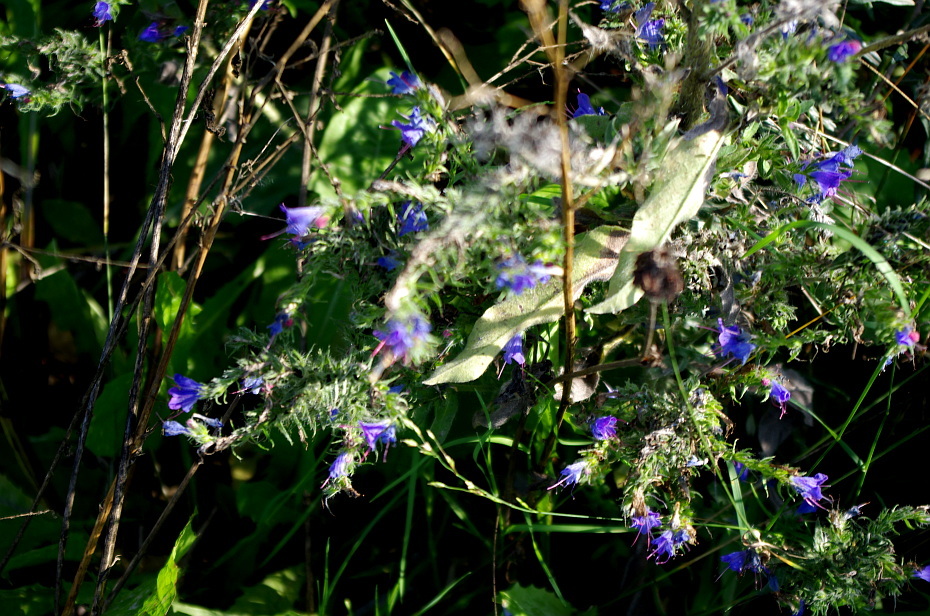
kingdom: Plantae
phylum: Tracheophyta
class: Magnoliopsida
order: Boraginales
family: Boraginaceae
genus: Echium
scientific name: Echium vulgare
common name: Common viper's bugloss
